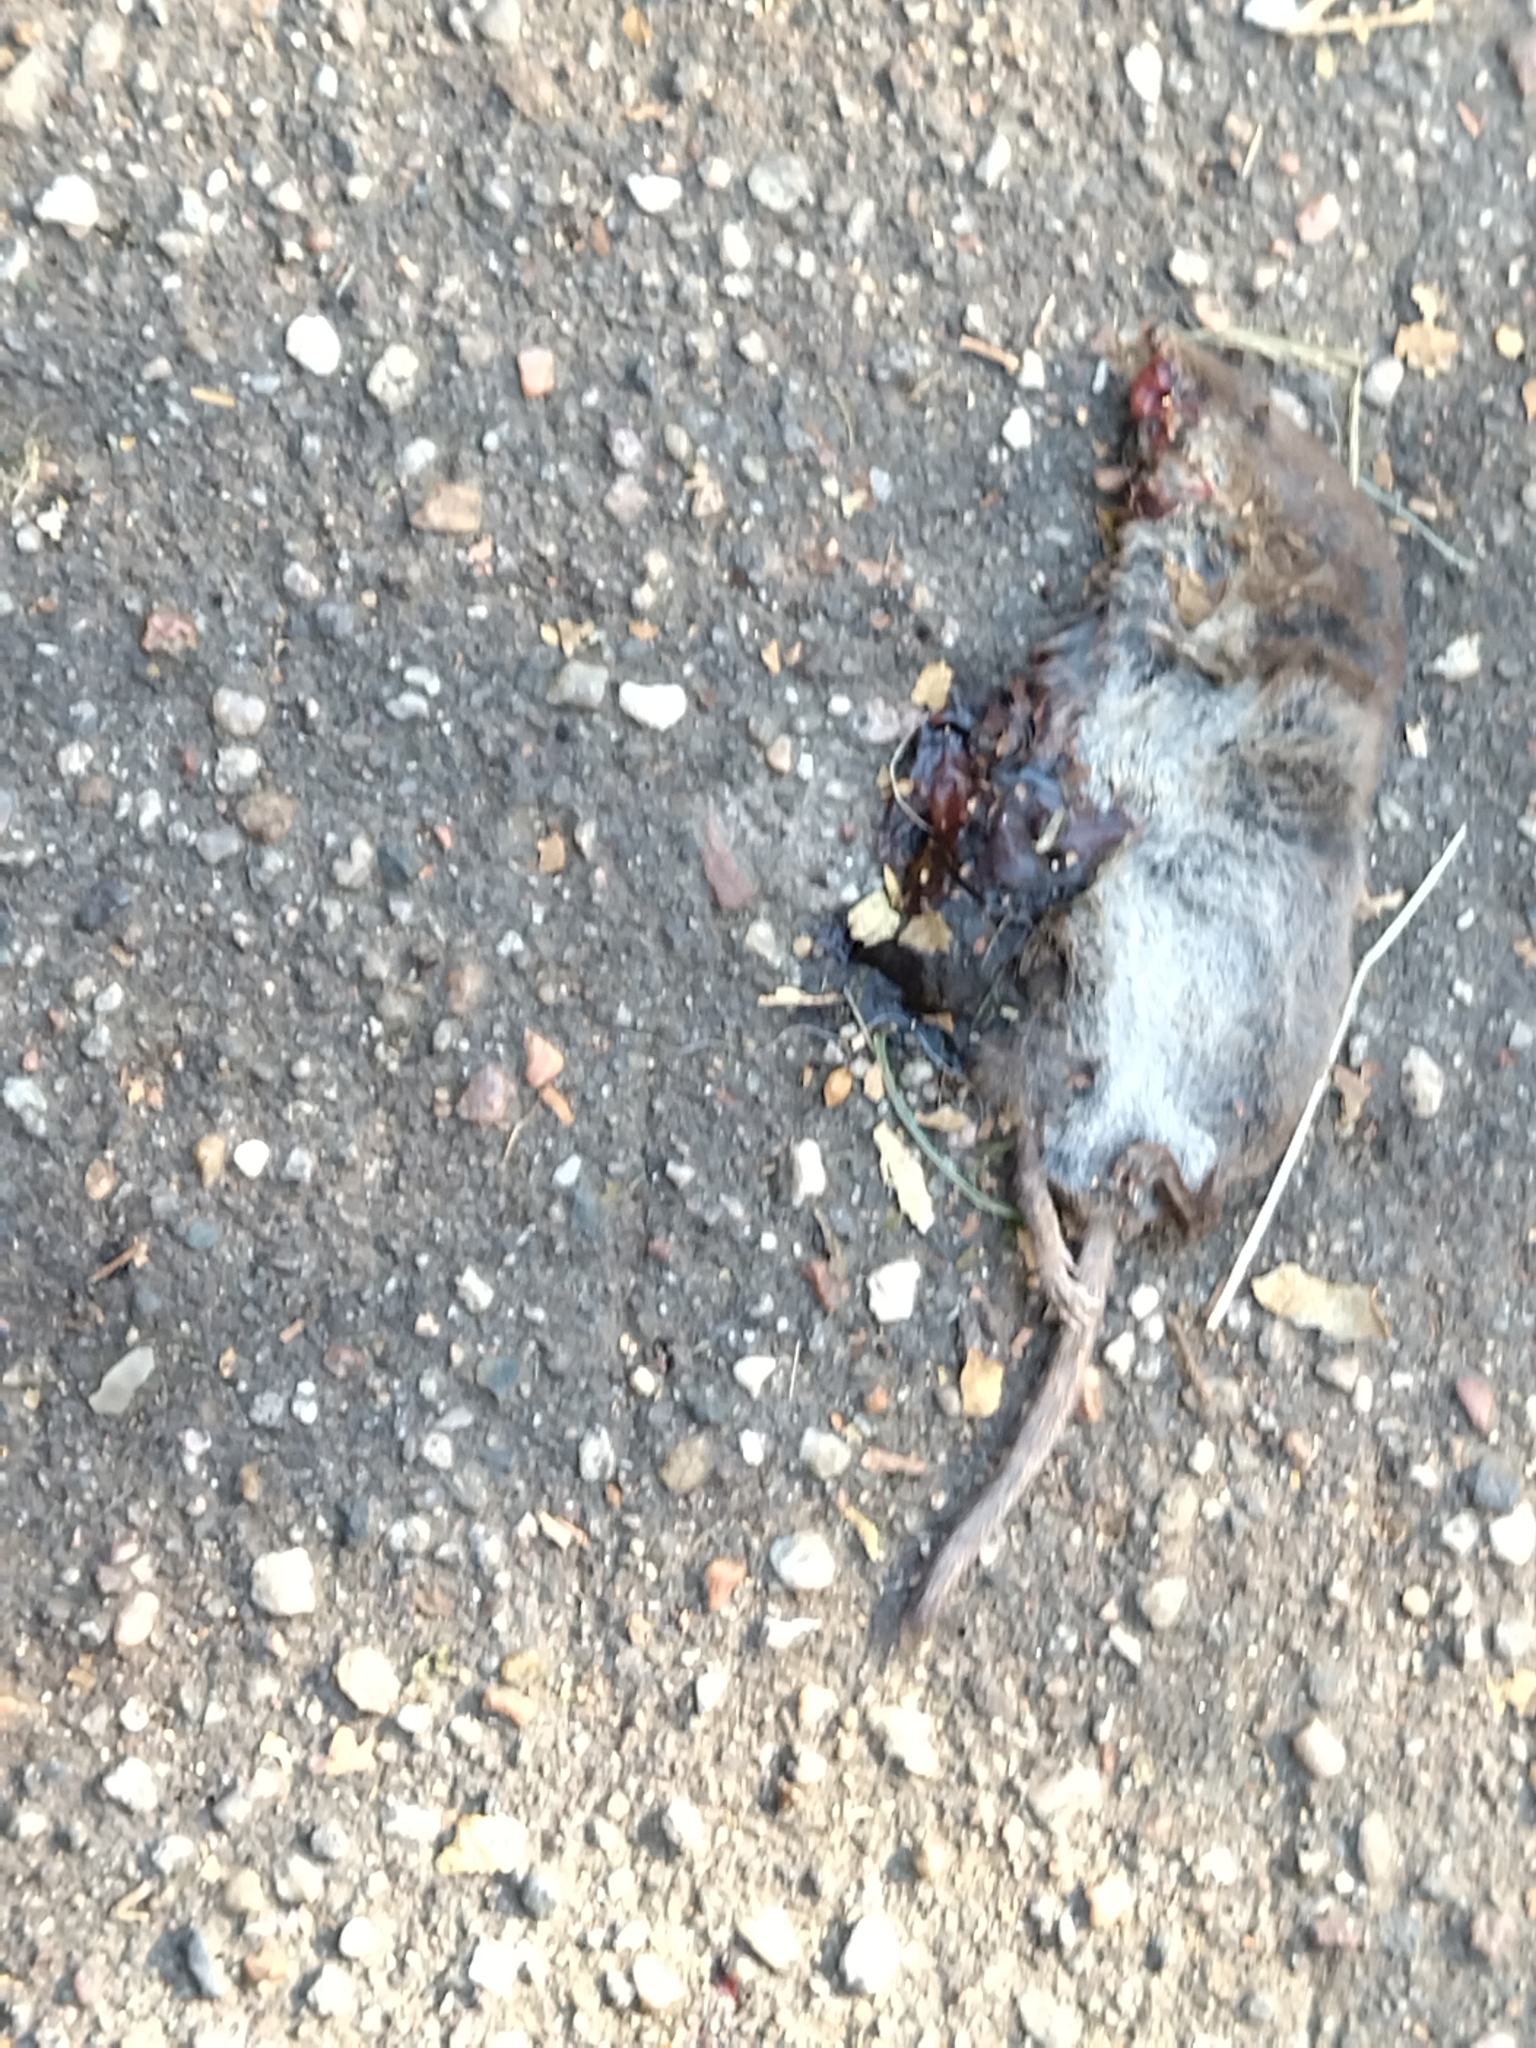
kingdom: Animalia
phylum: Chordata
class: Mammalia
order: Soricomorpha
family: Soricidae
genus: Sorex
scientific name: Sorex araneus
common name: Common shrew
